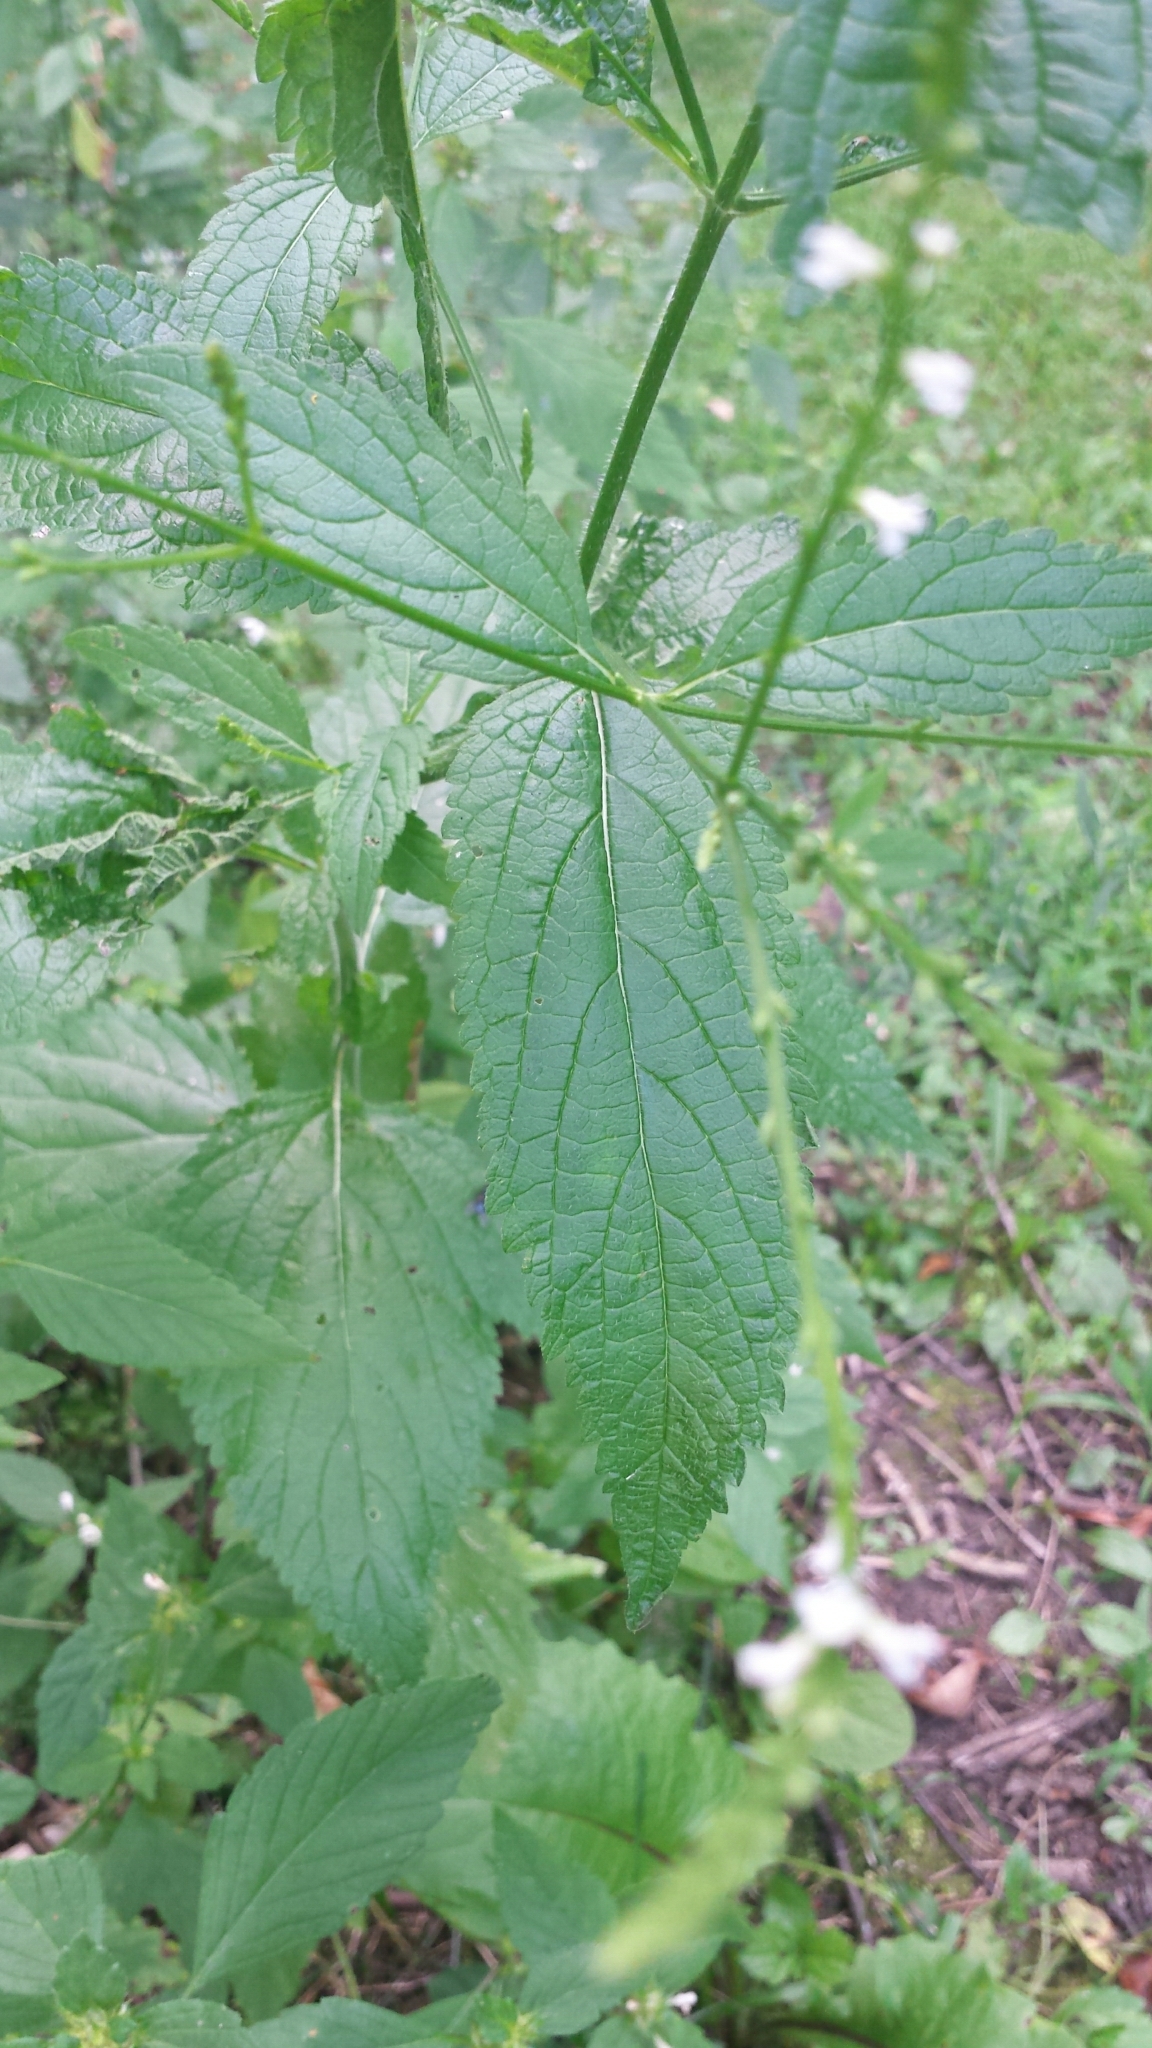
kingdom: Plantae
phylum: Tracheophyta
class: Magnoliopsida
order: Lamiales
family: Verbenaceae
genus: Verbena
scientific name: Verbena urticifolia
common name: Nettle-leaved vervain
